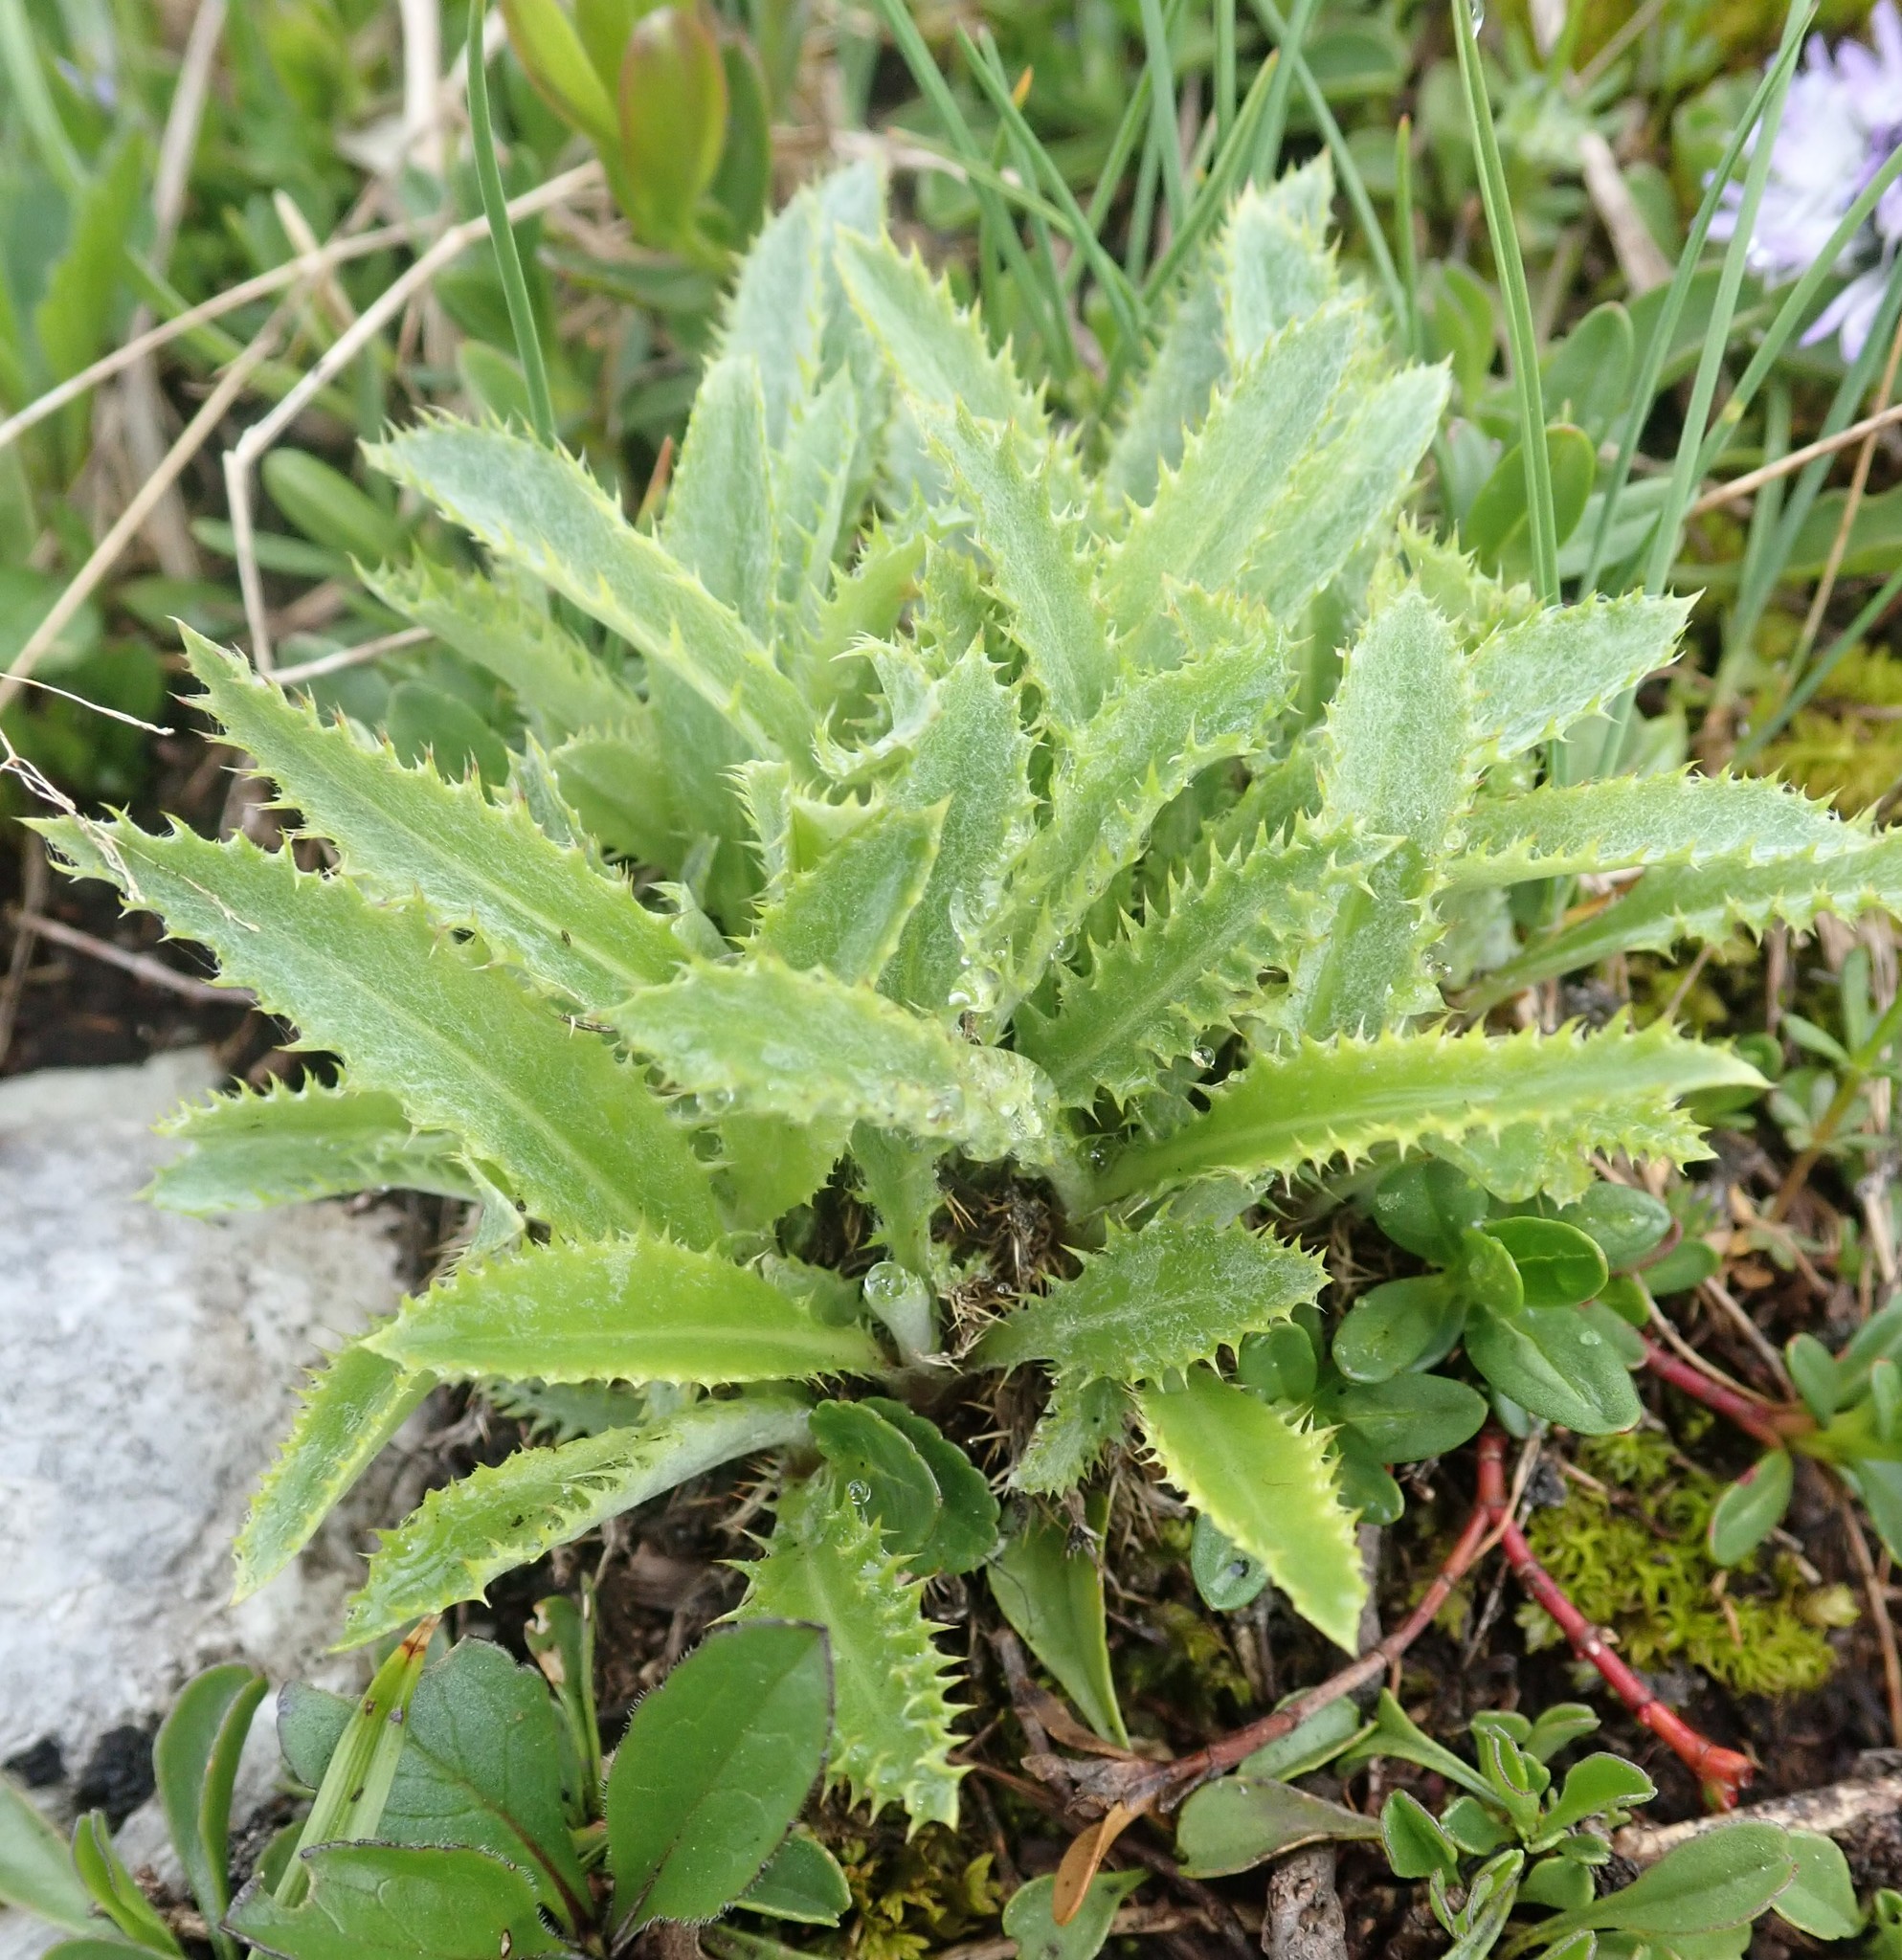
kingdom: Plantae
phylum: Tracheophyta
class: Magnoliopsida
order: Asterales
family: Asteraceae
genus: Carduus
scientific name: Carduus defloratus
